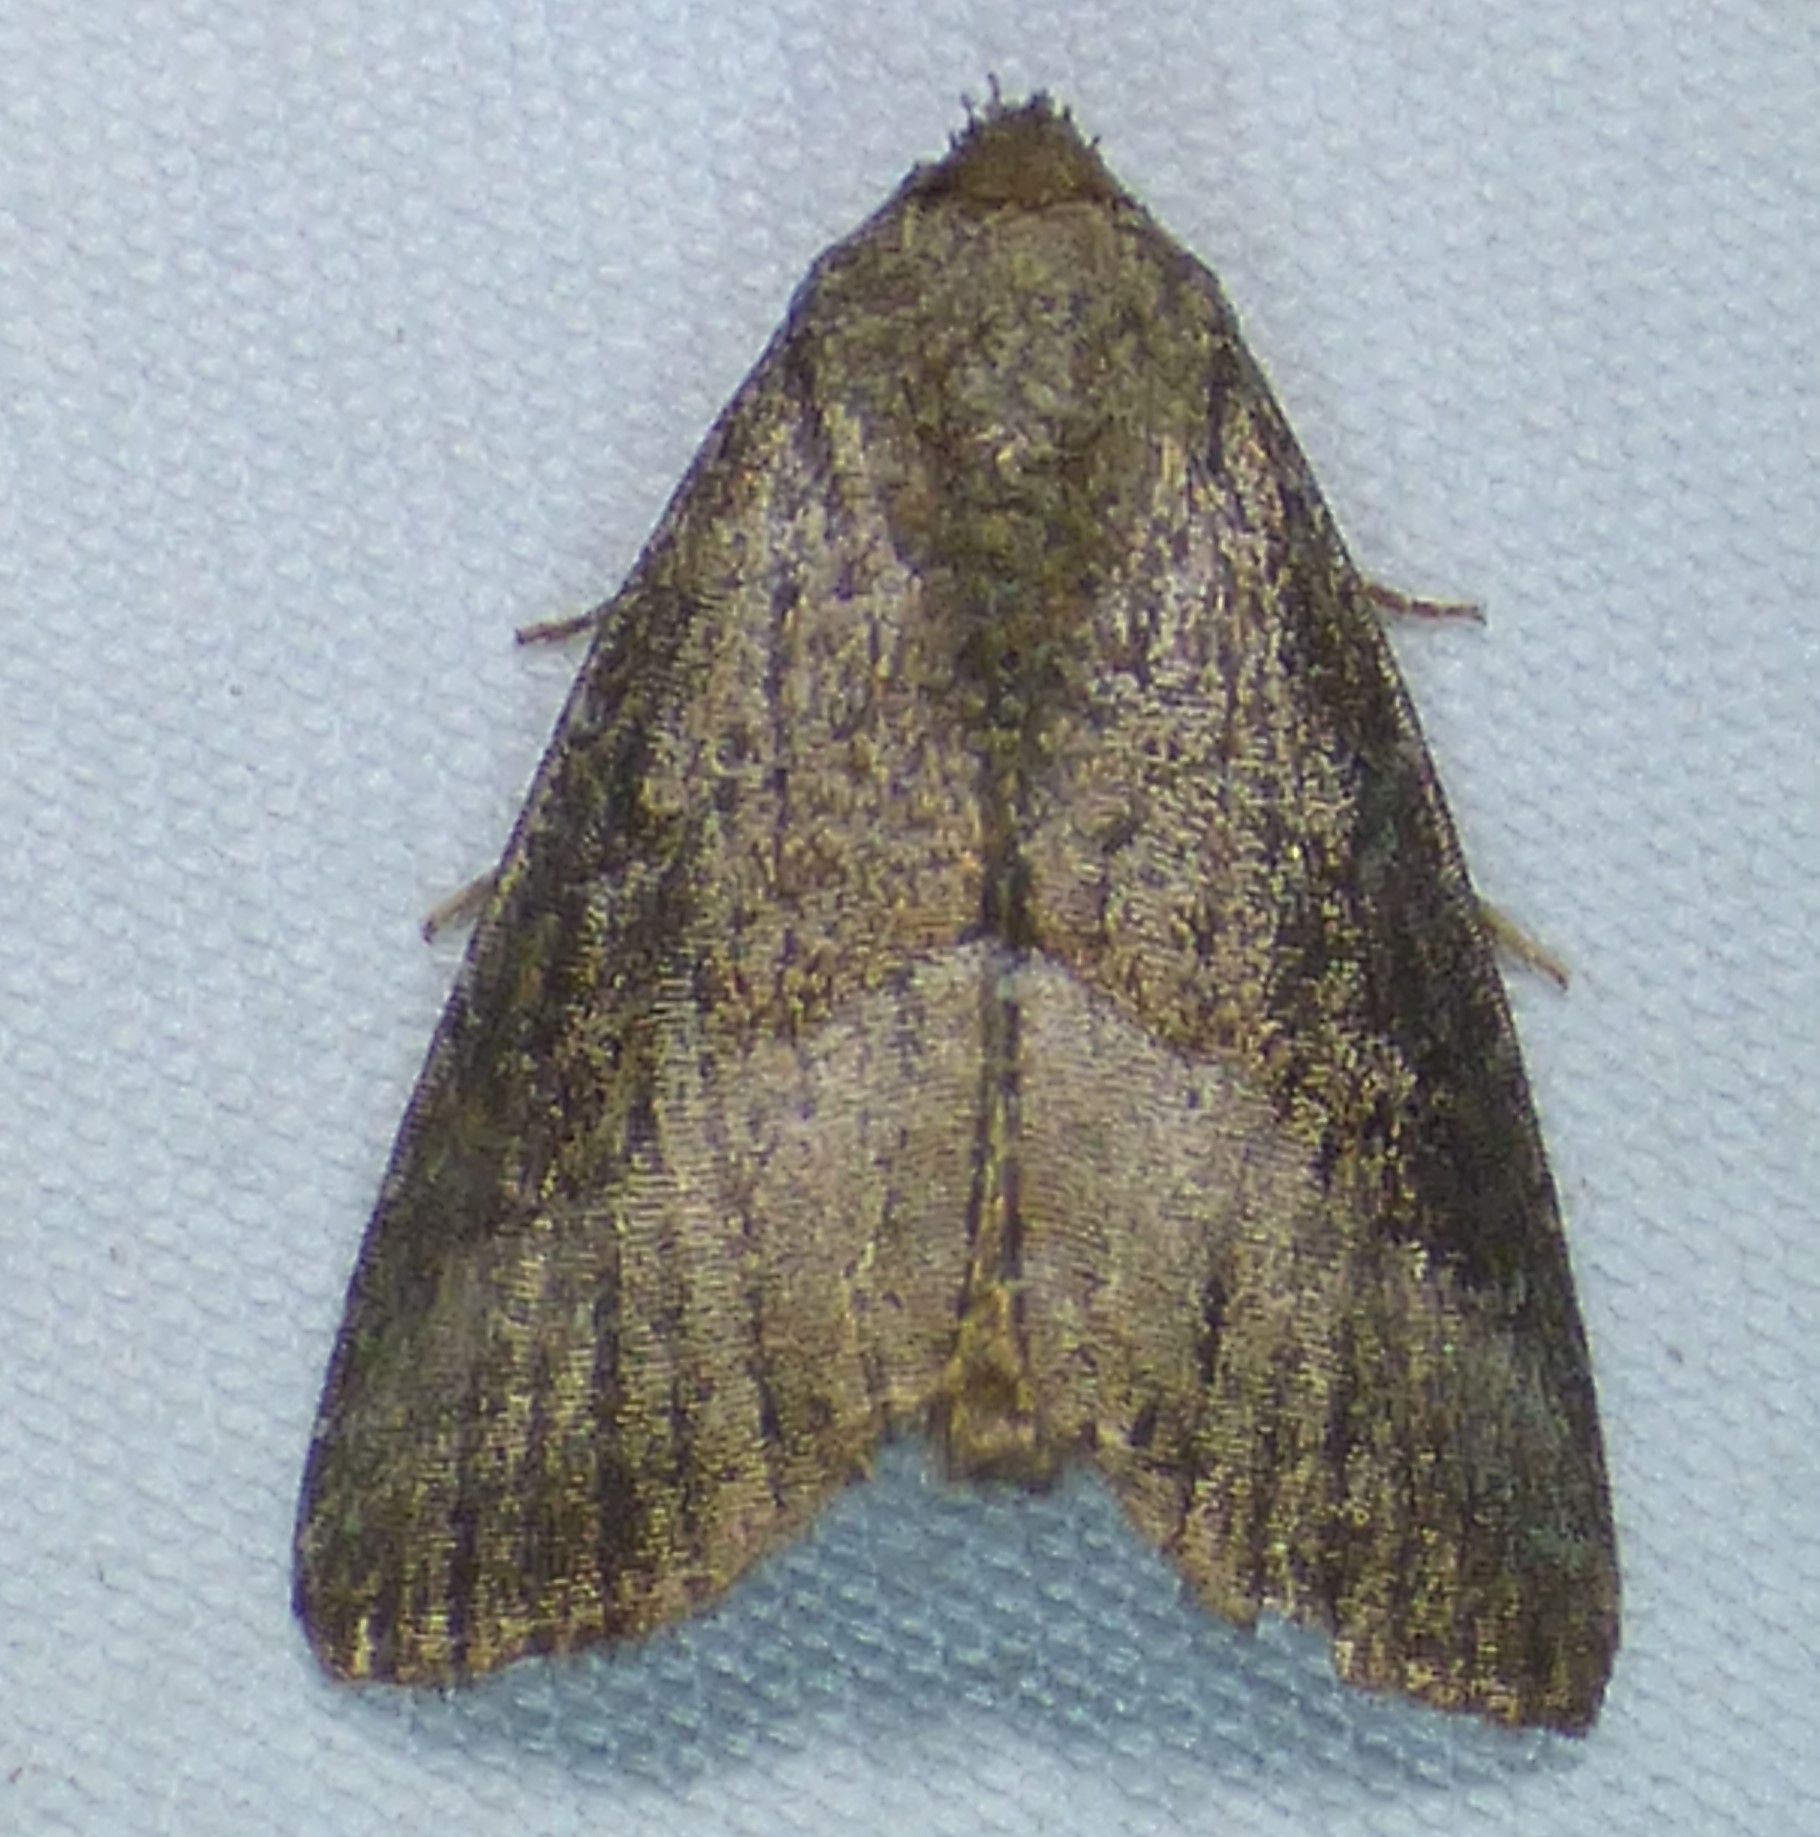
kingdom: Animalia
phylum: Arthropoda
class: Insecta
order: Lepidoptera
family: Noctuidae
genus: Ogdoconta
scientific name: Ogdoconta cinereola
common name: Common pinkband
